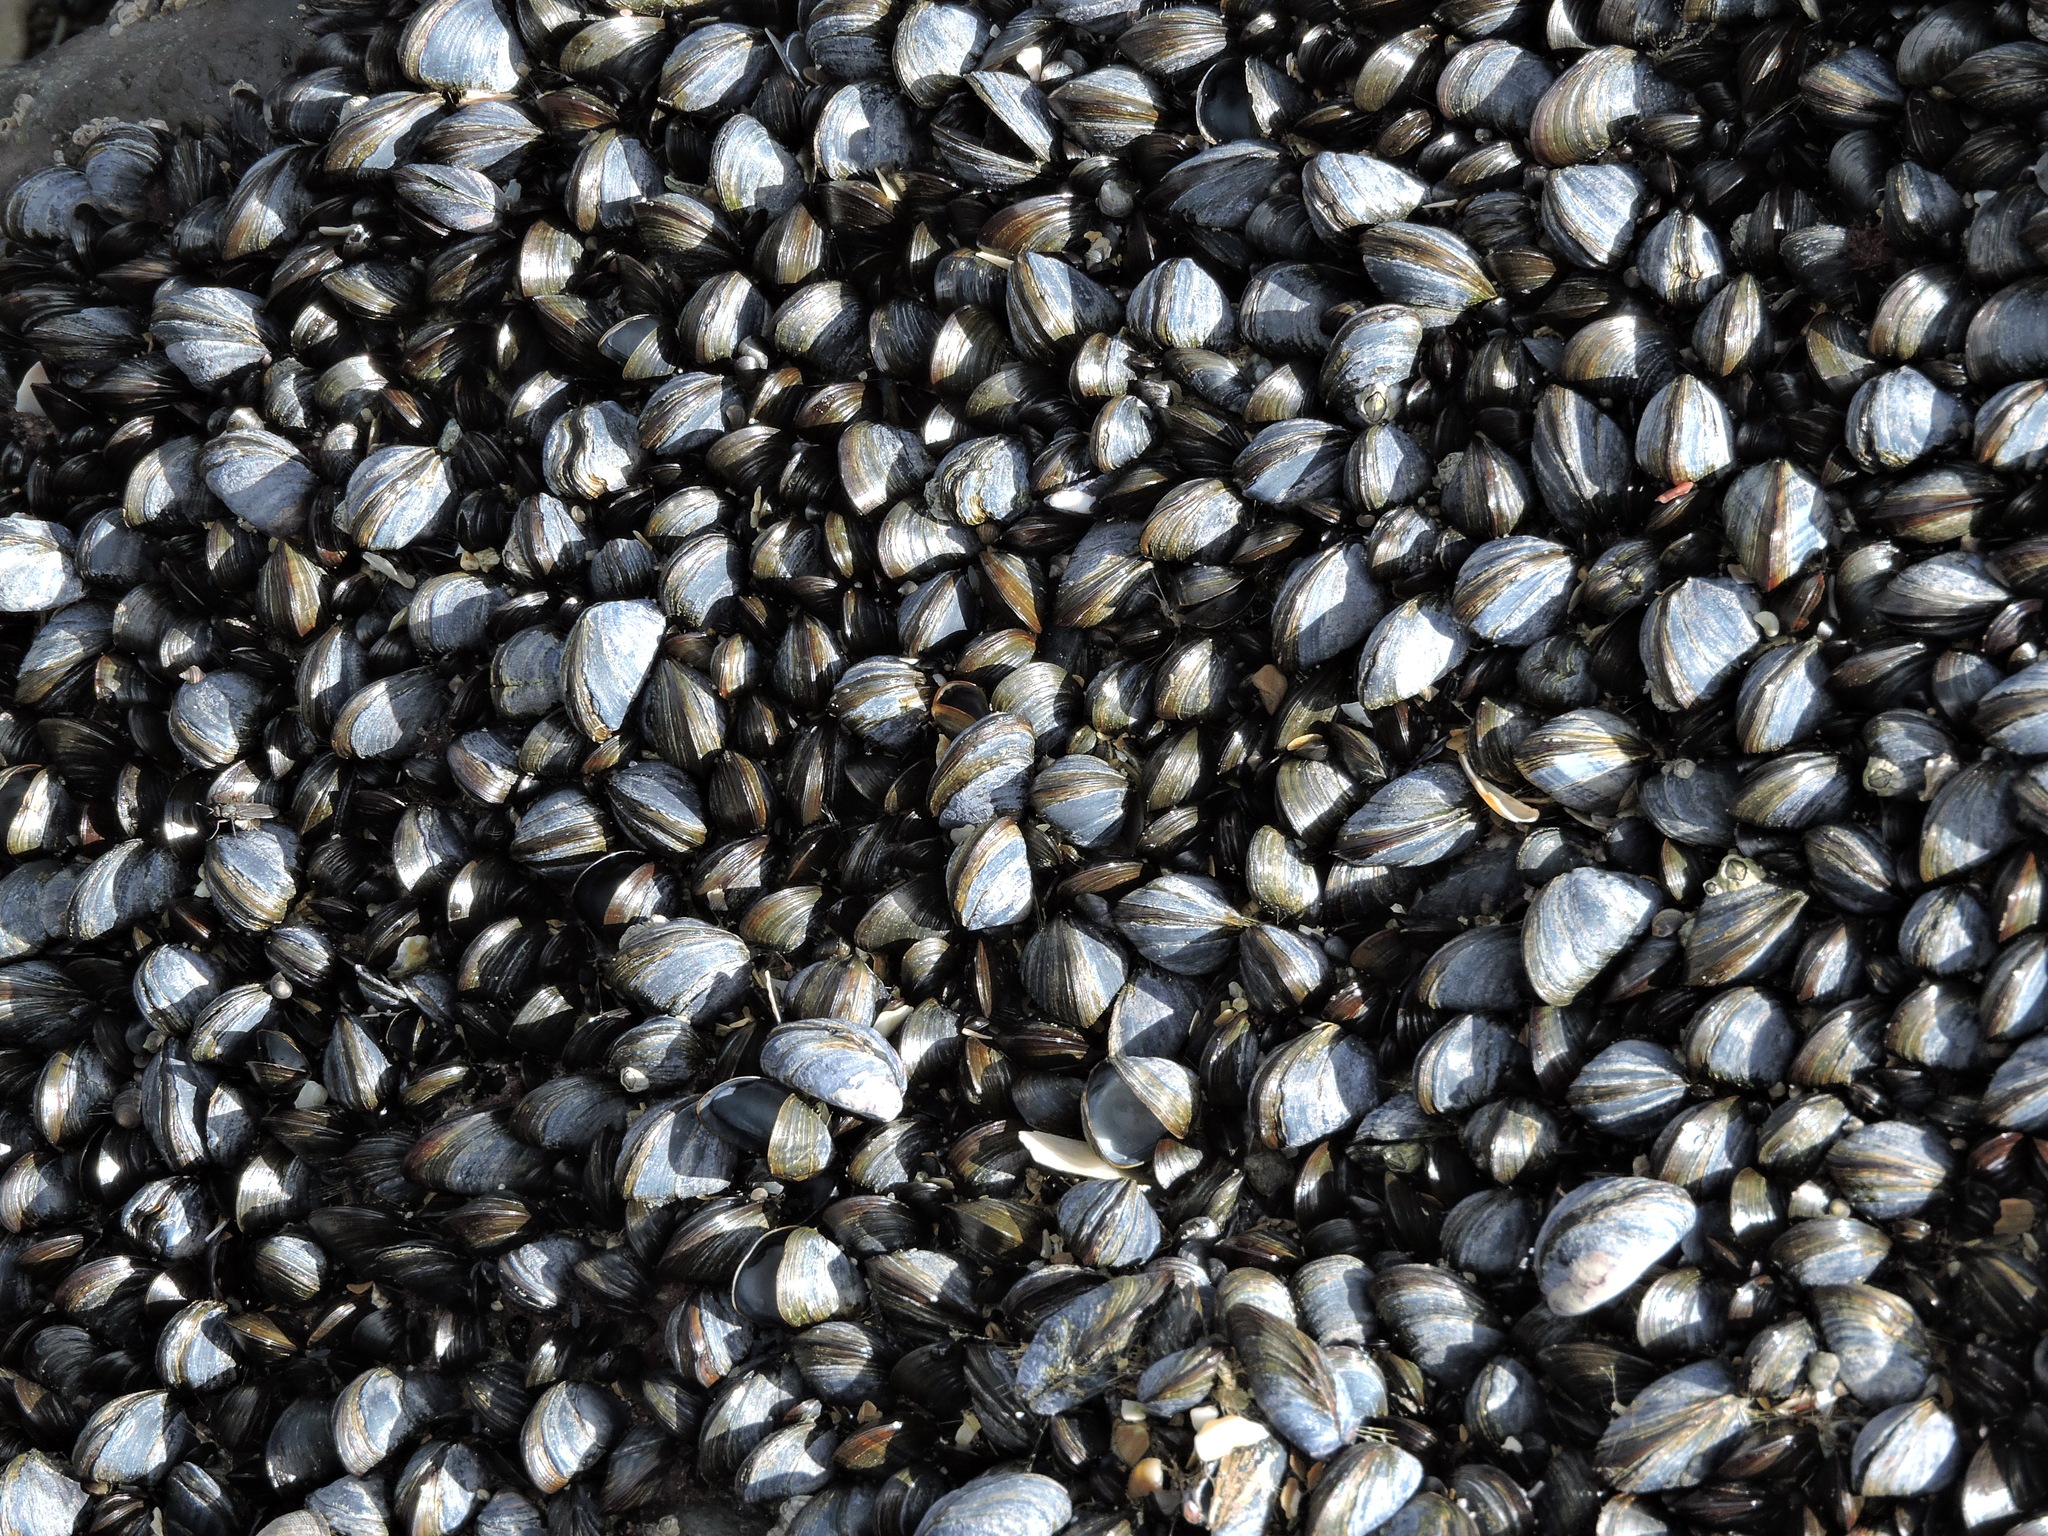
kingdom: Animalia
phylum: Mollusca
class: Bivalvia
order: Mytilida
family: Mytilidae
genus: Mytilus
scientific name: Mytilus edulis
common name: Blue mussel
